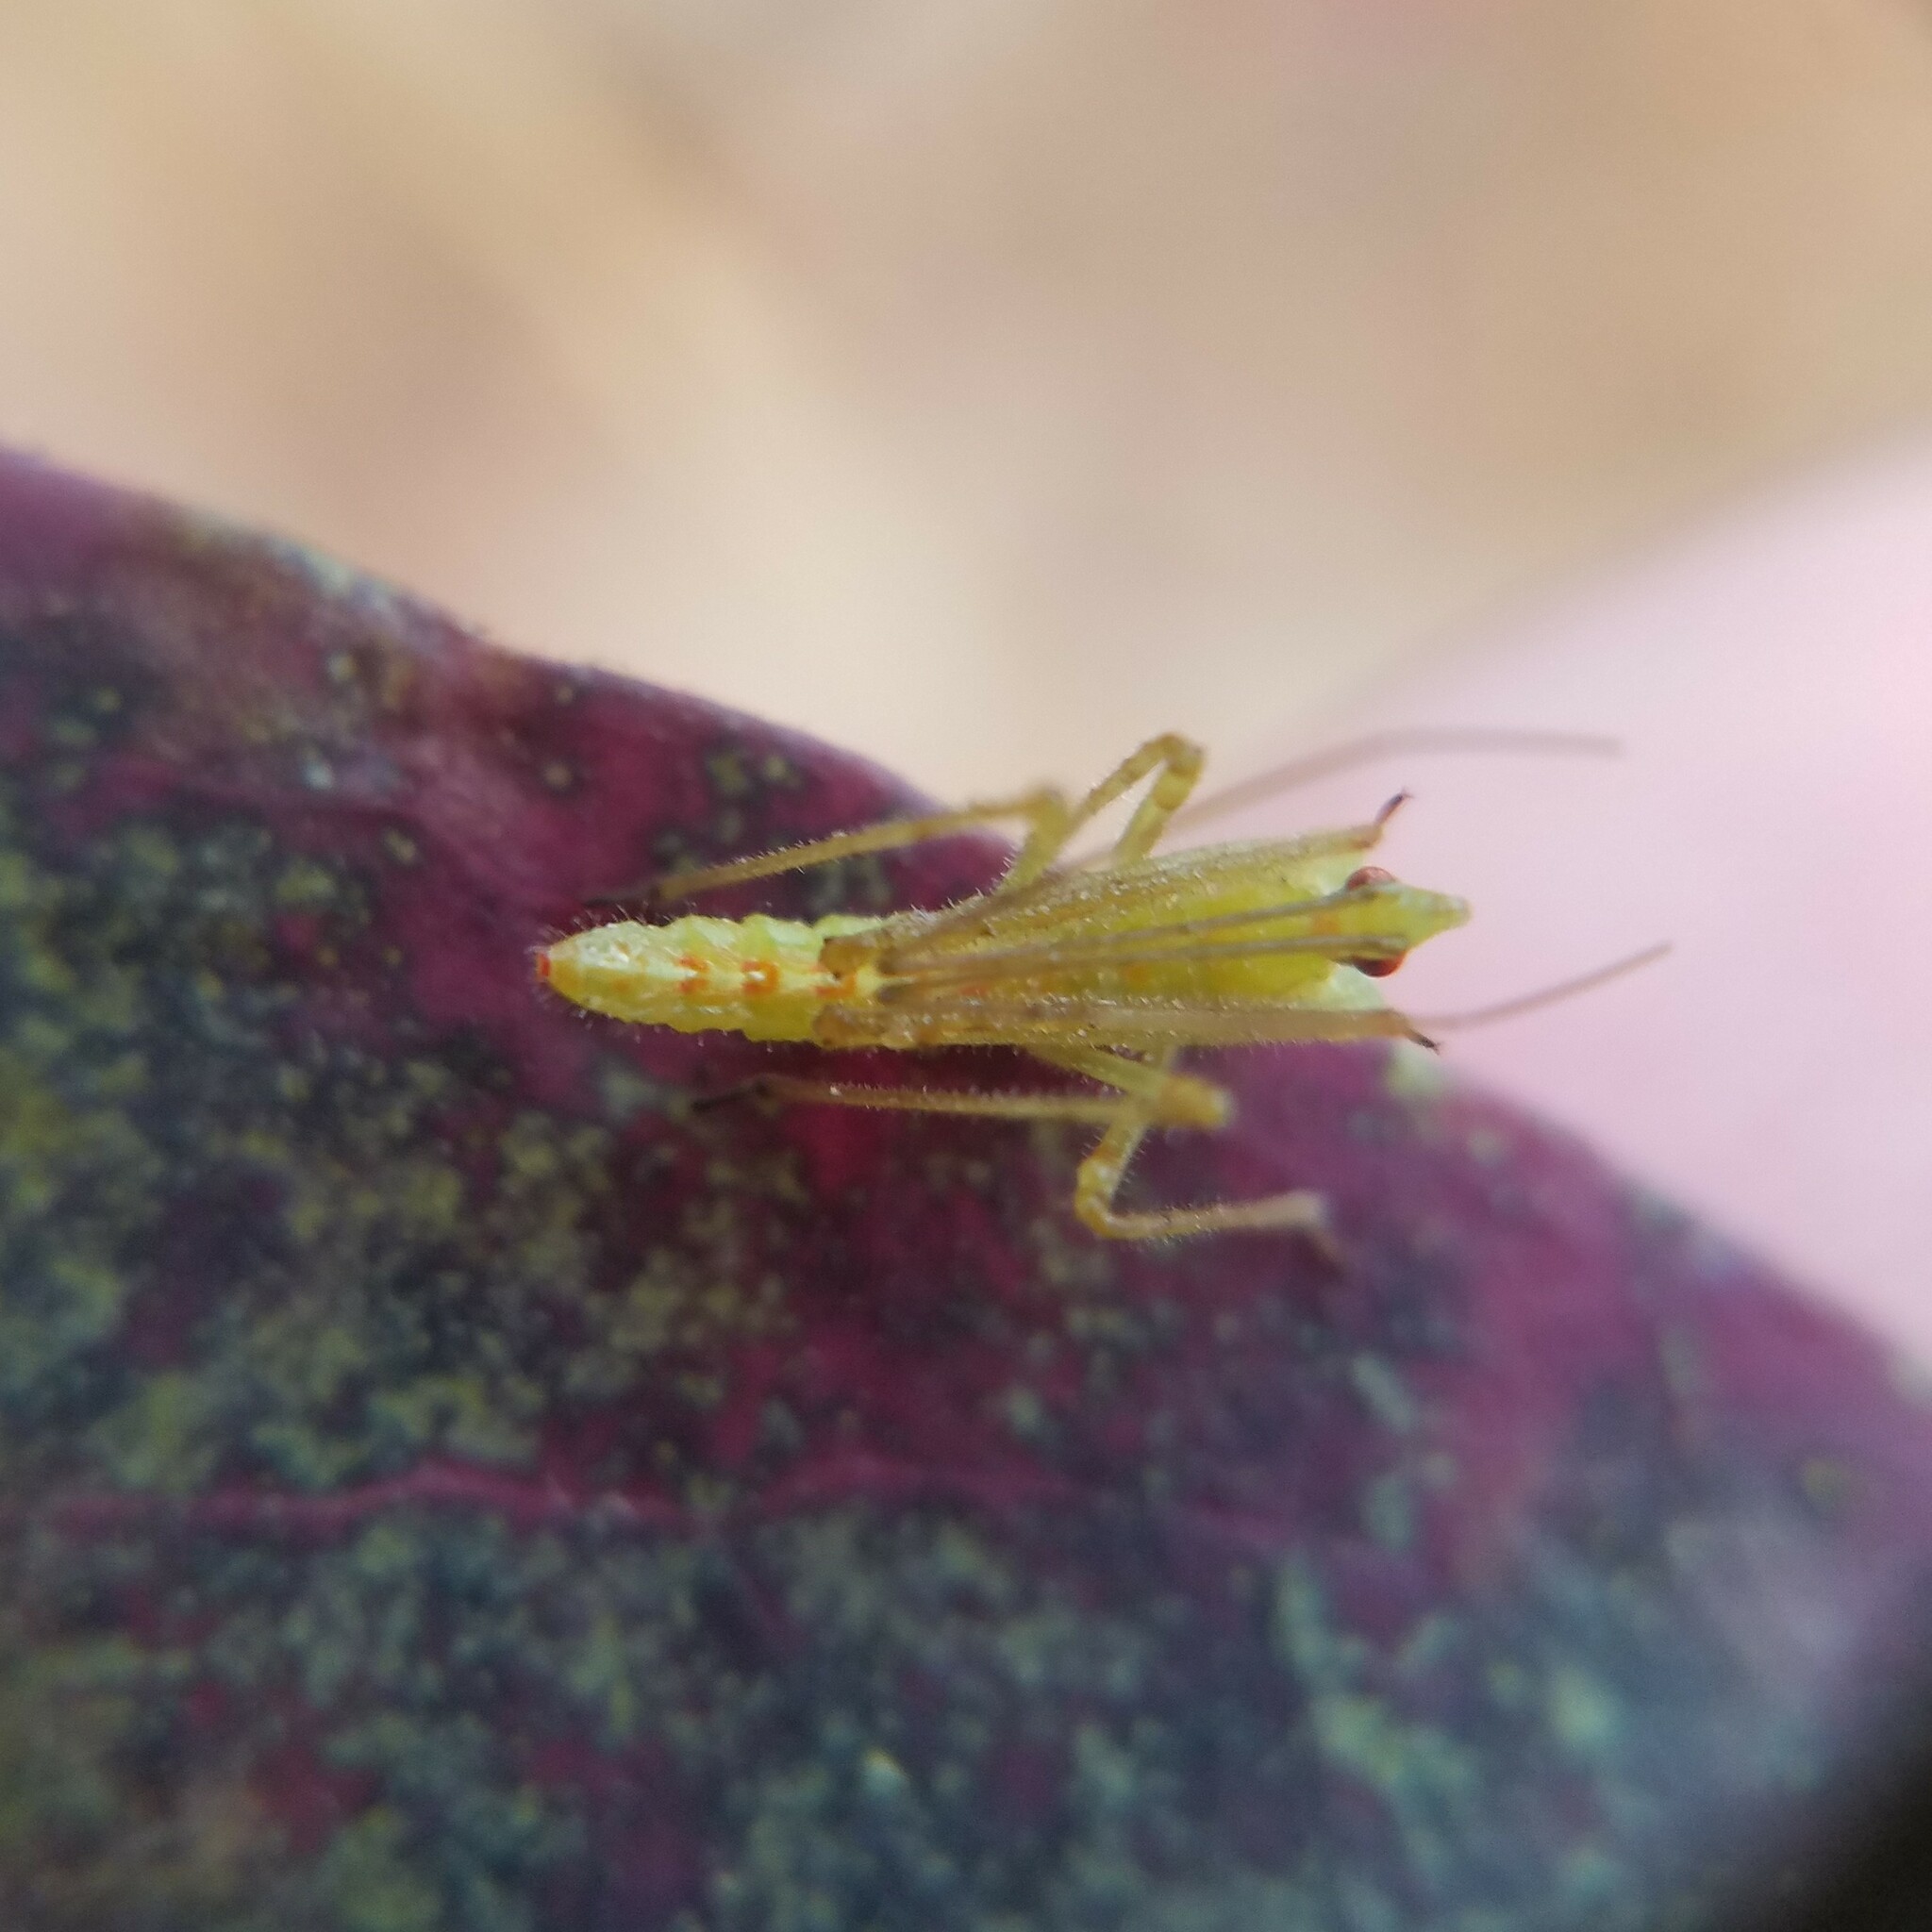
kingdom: Animalia
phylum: Arthropoda
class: Insecta
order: Hemiptera
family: Reduviidae
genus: Zelus
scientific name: Zelus luridus
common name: Pale green assassin bug
